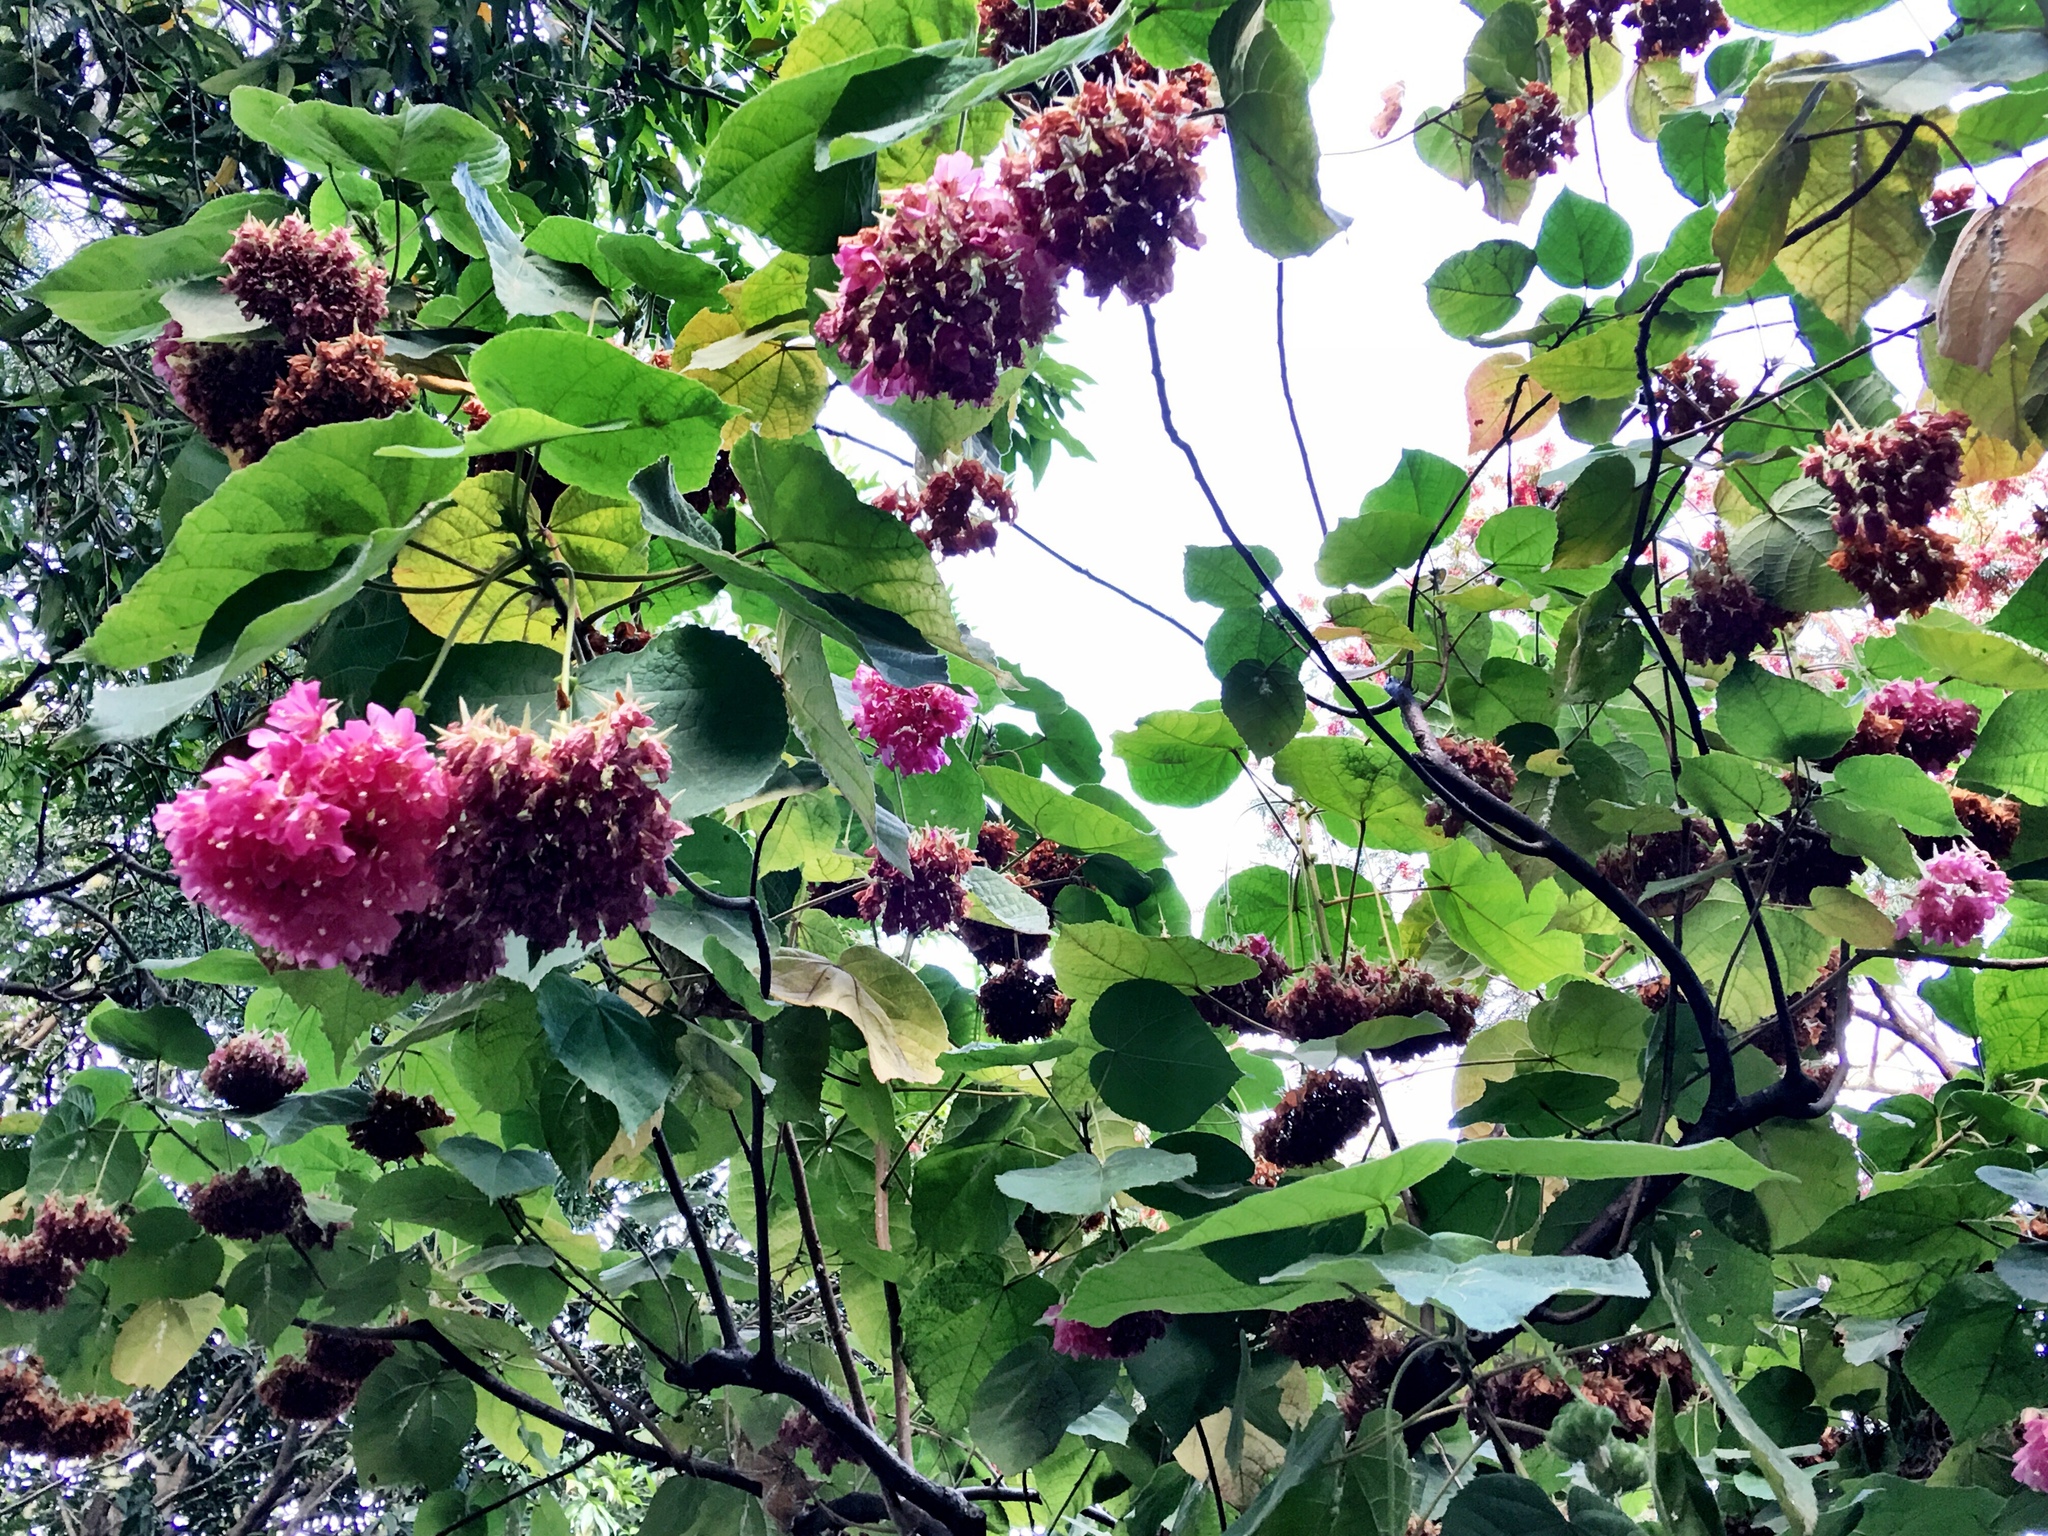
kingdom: Plantae
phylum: Tracheophyta
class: Magnoliopsida
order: Malvales
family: Malvaceae
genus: Dombeya
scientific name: Dombeya wallichii
